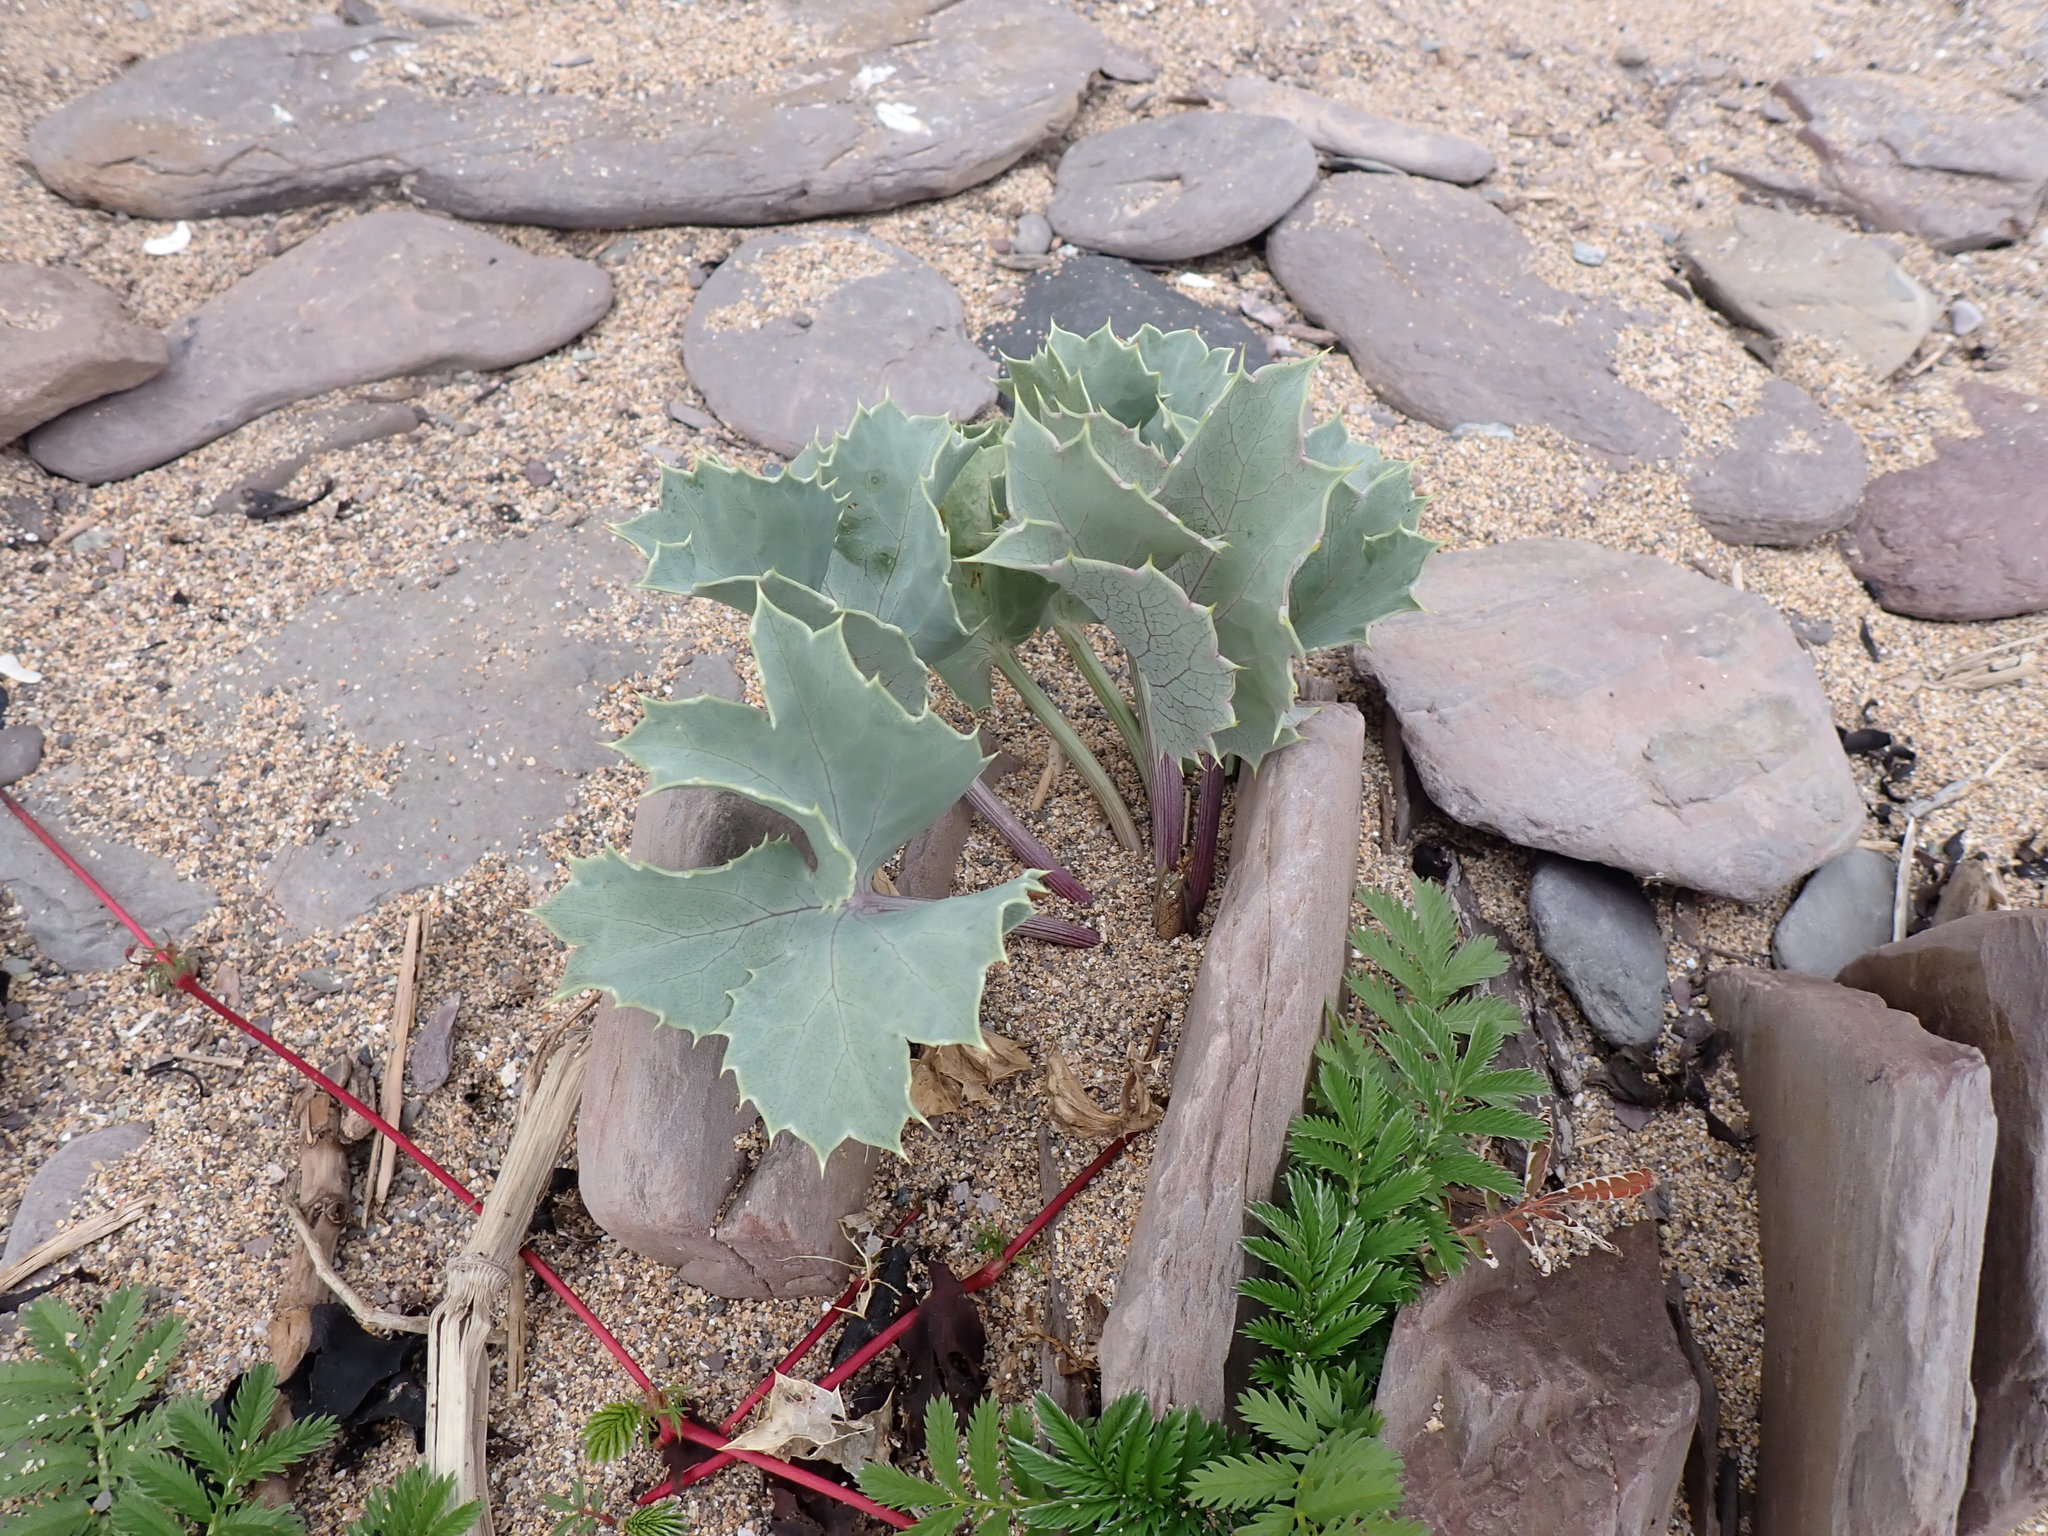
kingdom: Plantae
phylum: Tracheophyta
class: Magnoliopsida
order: Apiales
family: Apiaceae
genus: Eryngium
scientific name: Eryngium maritimum
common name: Sea-holly
